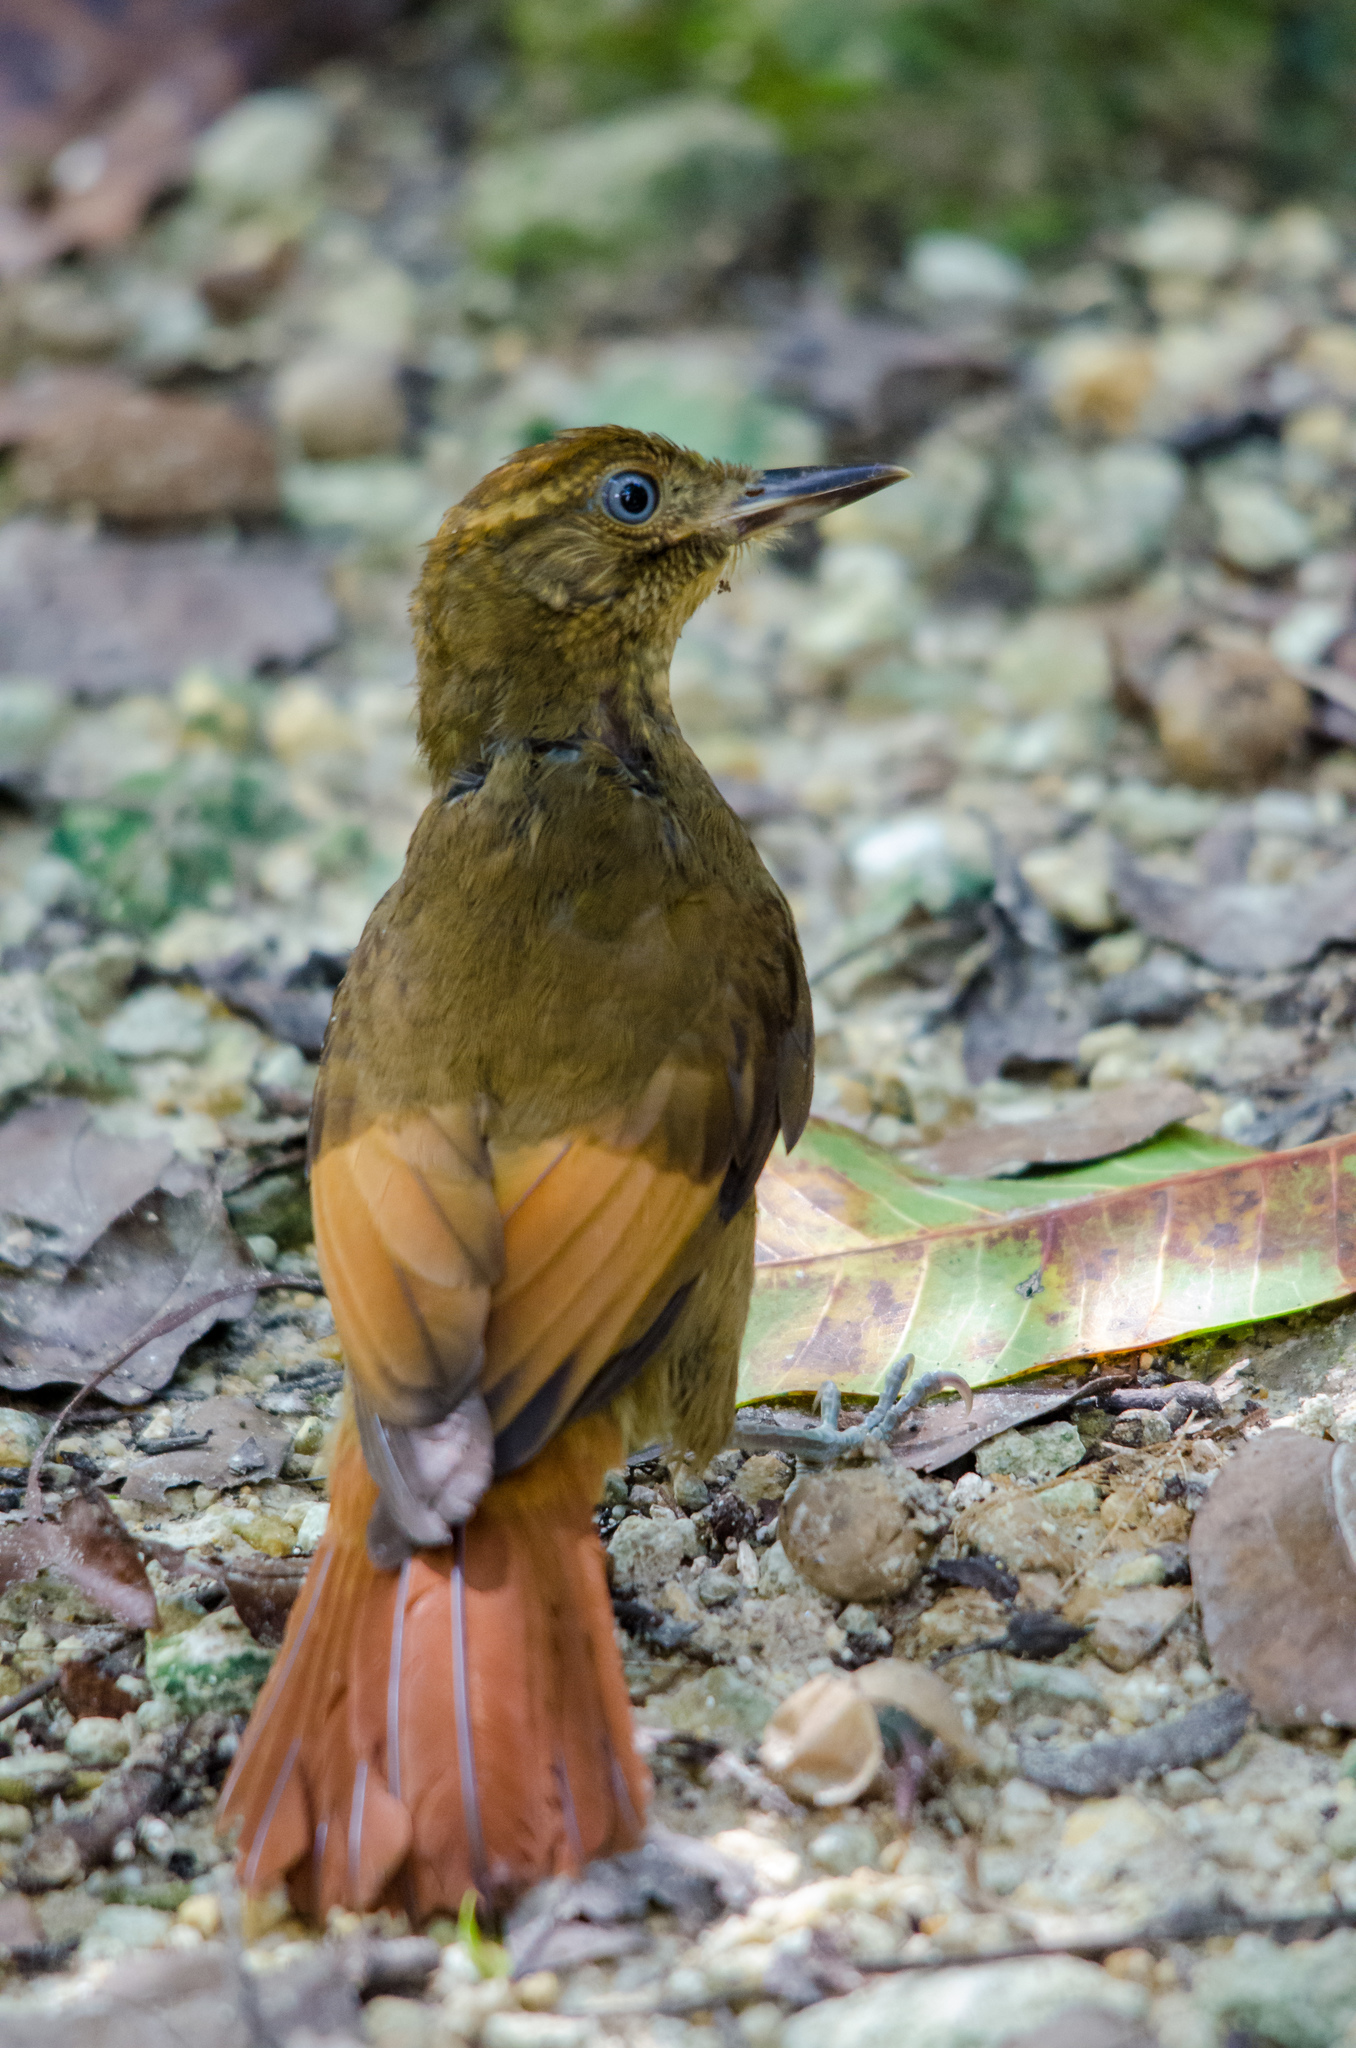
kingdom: Animalia
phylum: Chordata
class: Aves
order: Passeriformes
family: Furnariidae
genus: Dendrocincla
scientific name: Dendrocincla anabatina
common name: Tawny-winged woodcreeper
